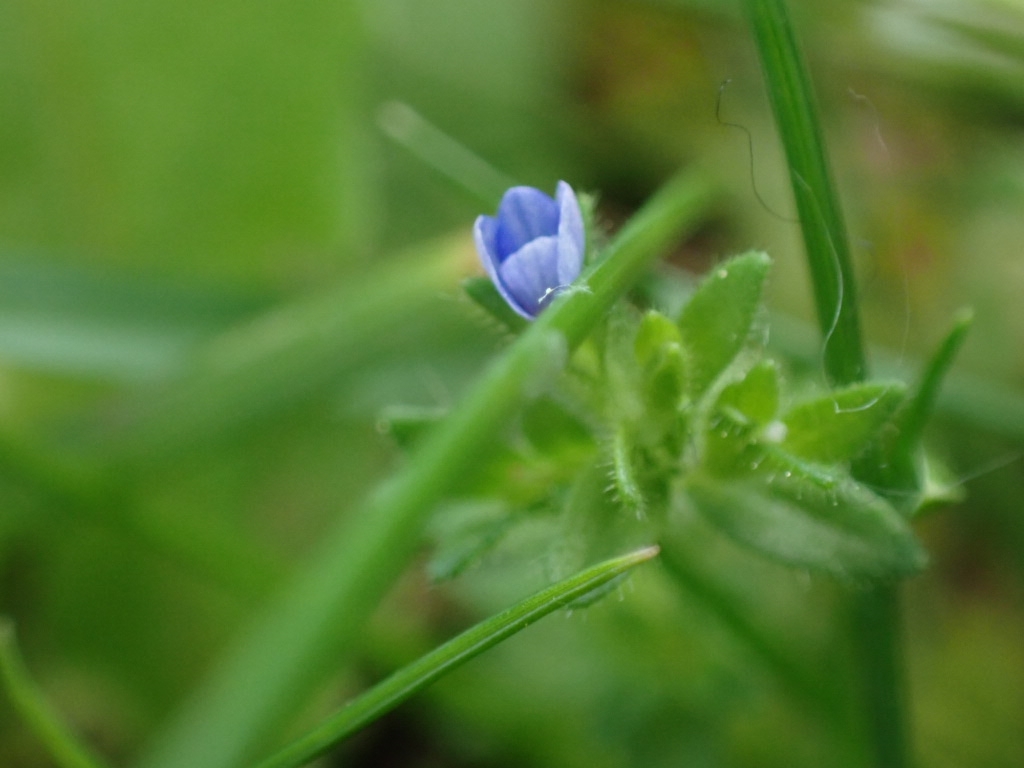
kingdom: Plantae
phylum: Tracheophyta
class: Magnoliopsida
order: Lamiales
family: Plantaginaceae
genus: Veronica
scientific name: Veronica arvensis
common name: Corn speedwell
